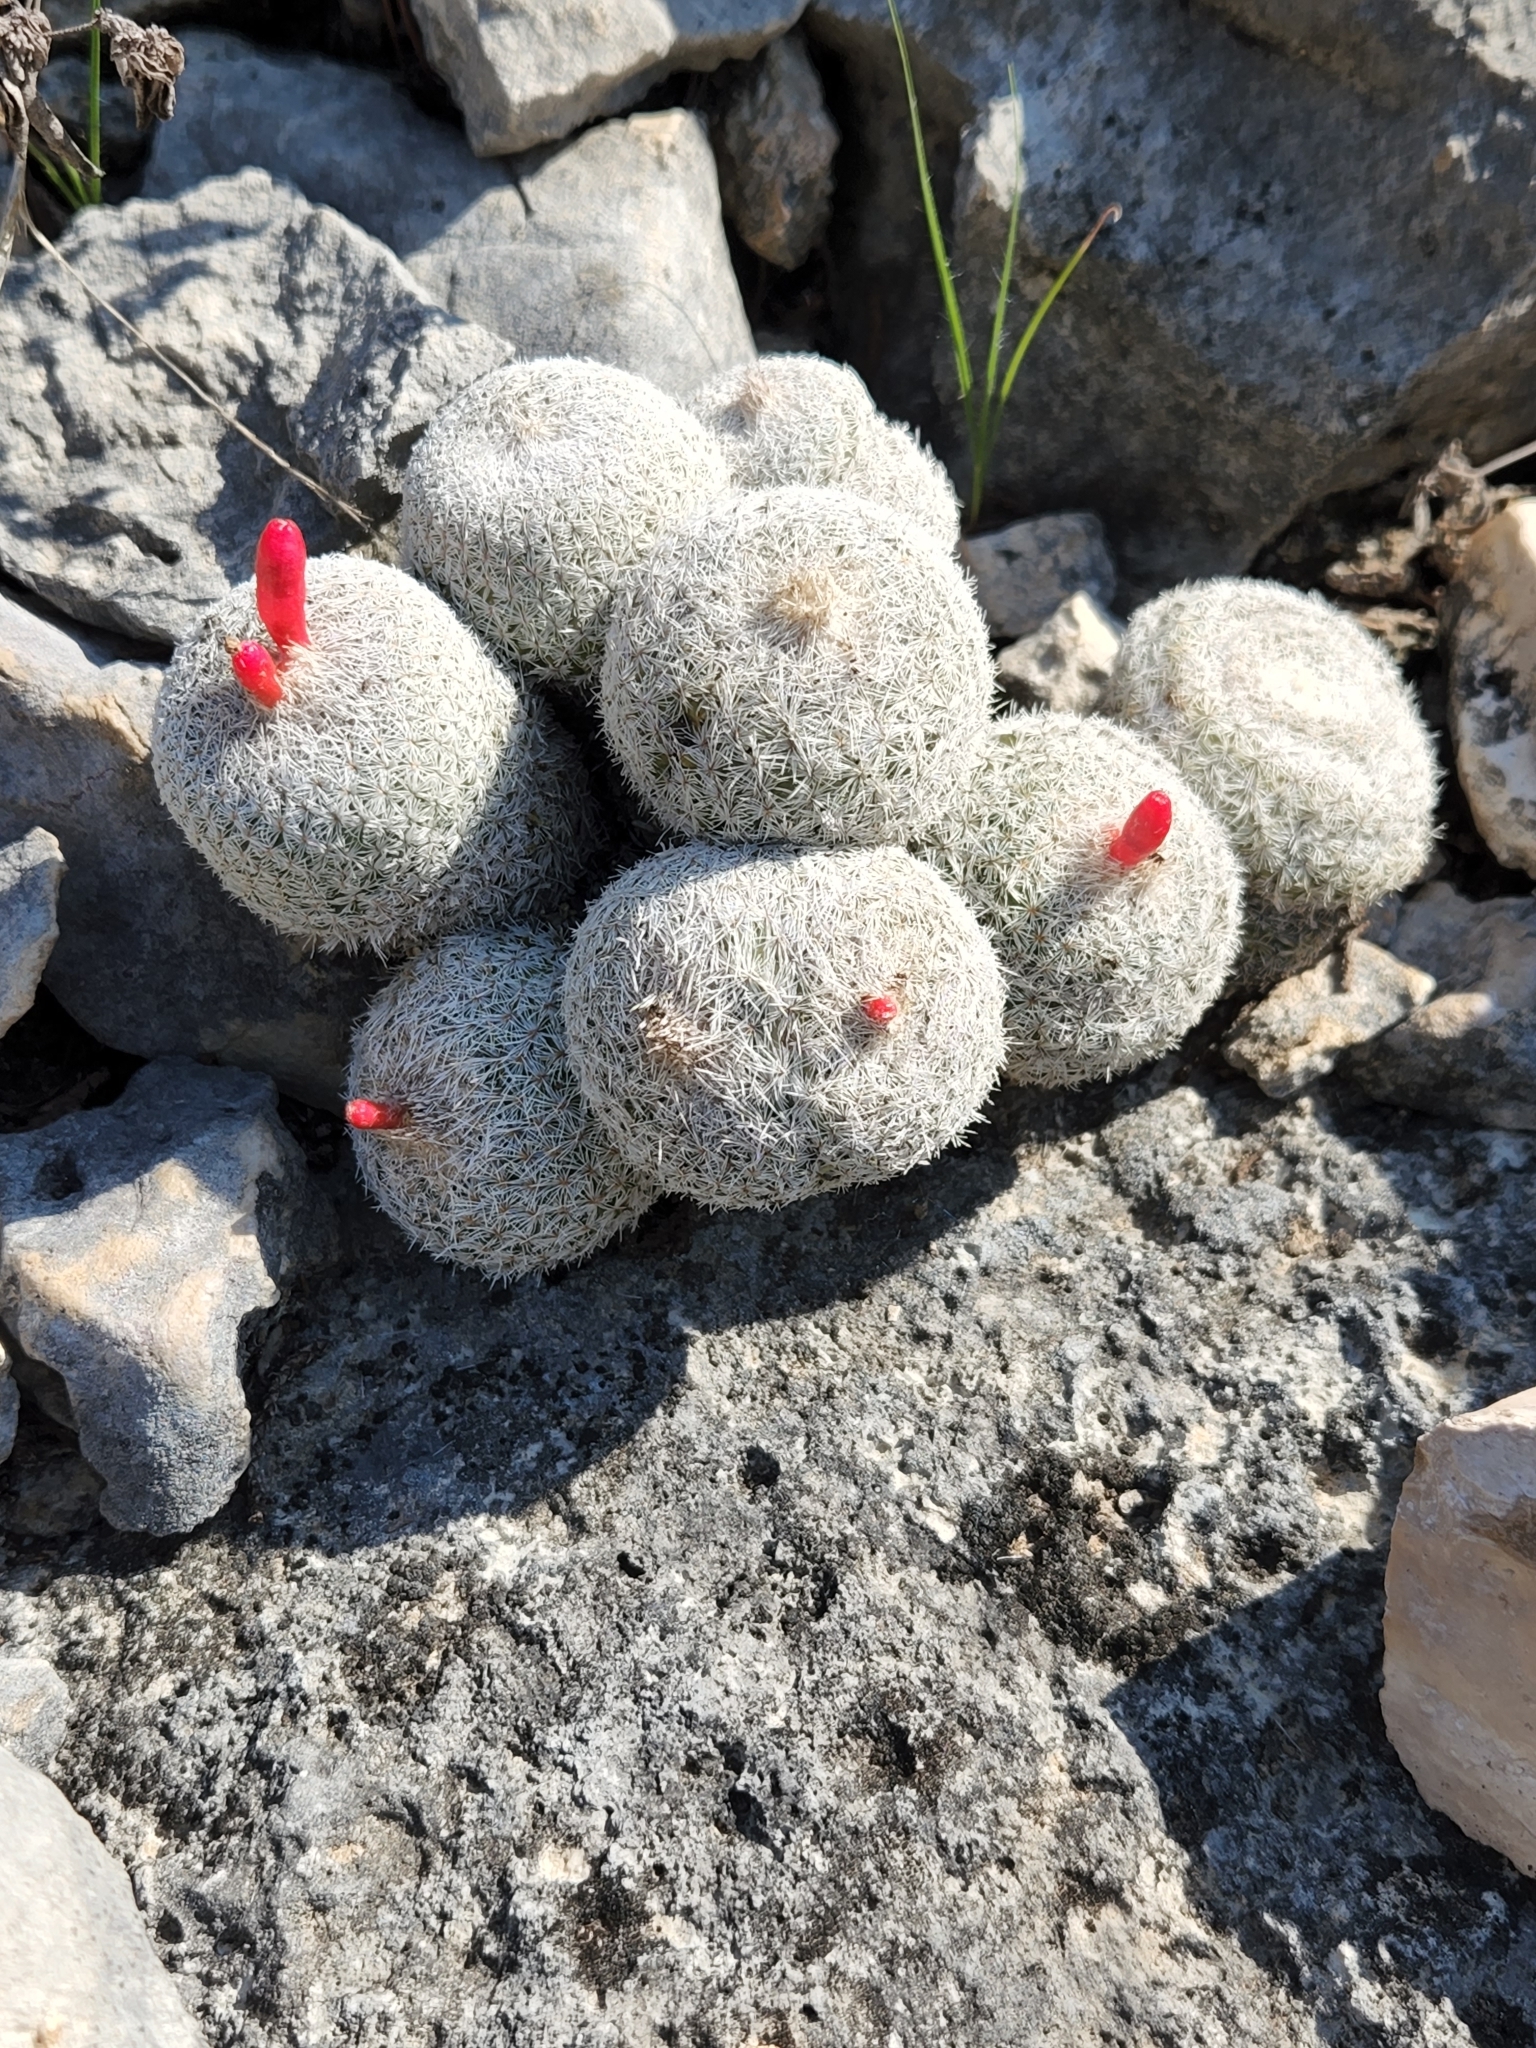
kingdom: Plantae
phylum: Tracheophyta
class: Magnoliopsida
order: Caryophyllales
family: Cactaceae
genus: Epithelantha
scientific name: Epithelantha micromeris
